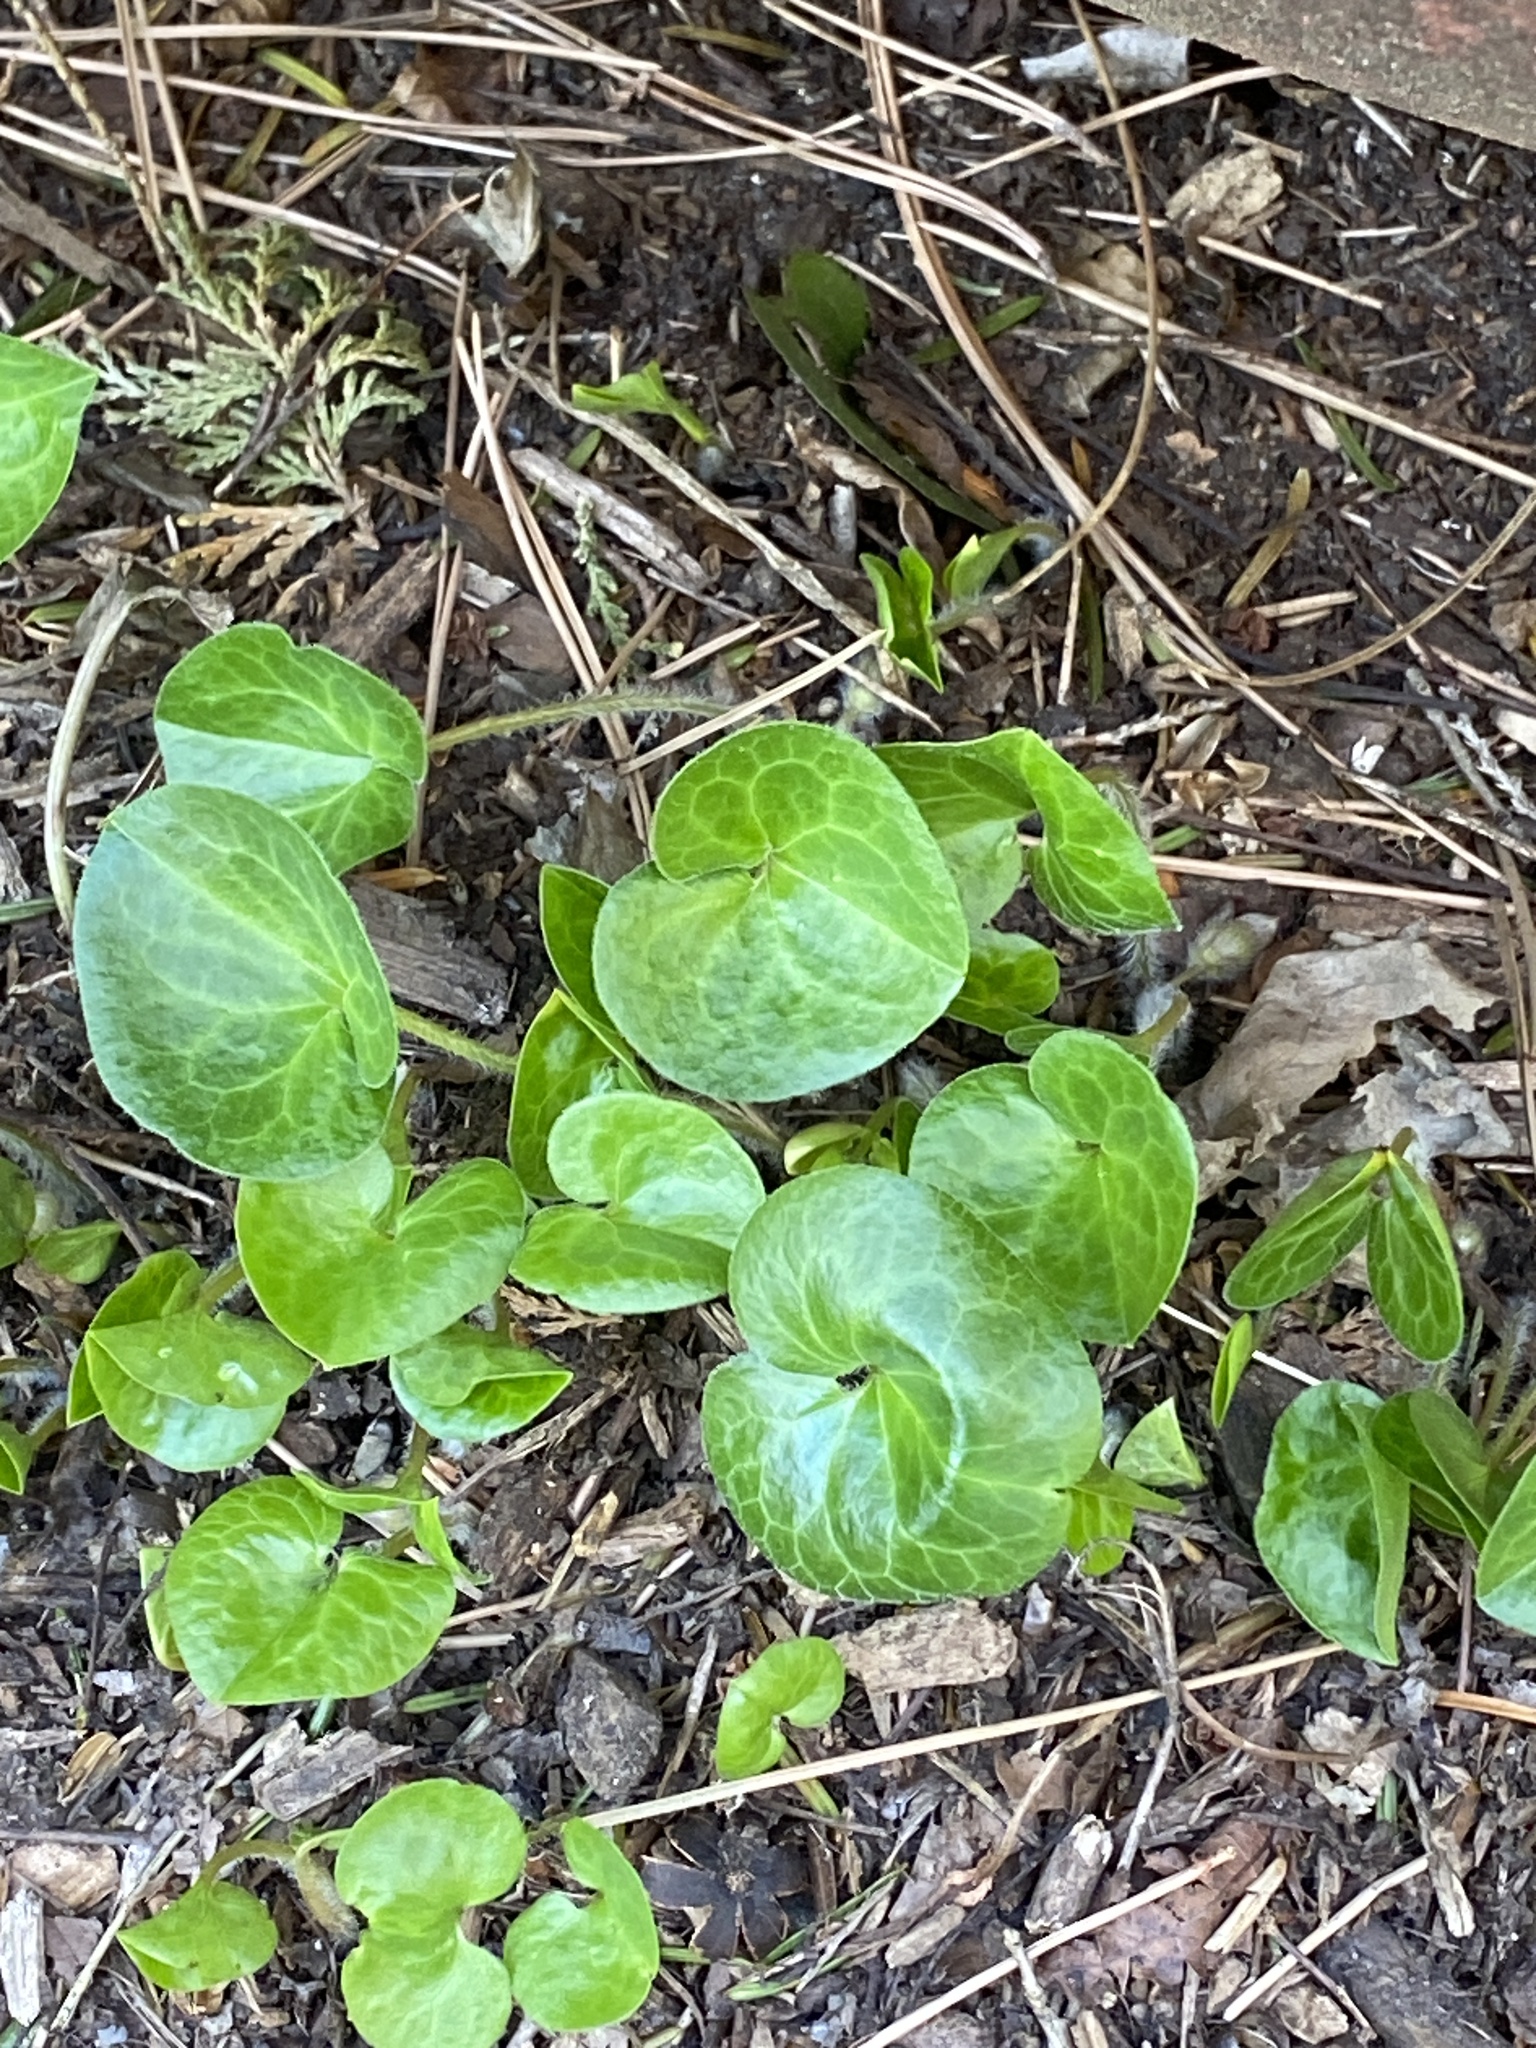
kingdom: Plantae
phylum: Tracheophyta
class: Magnoliopsida
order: Piperales
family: Aristolochiaceae
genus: Asarum
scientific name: Asarum europaeum
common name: Asarabacca
